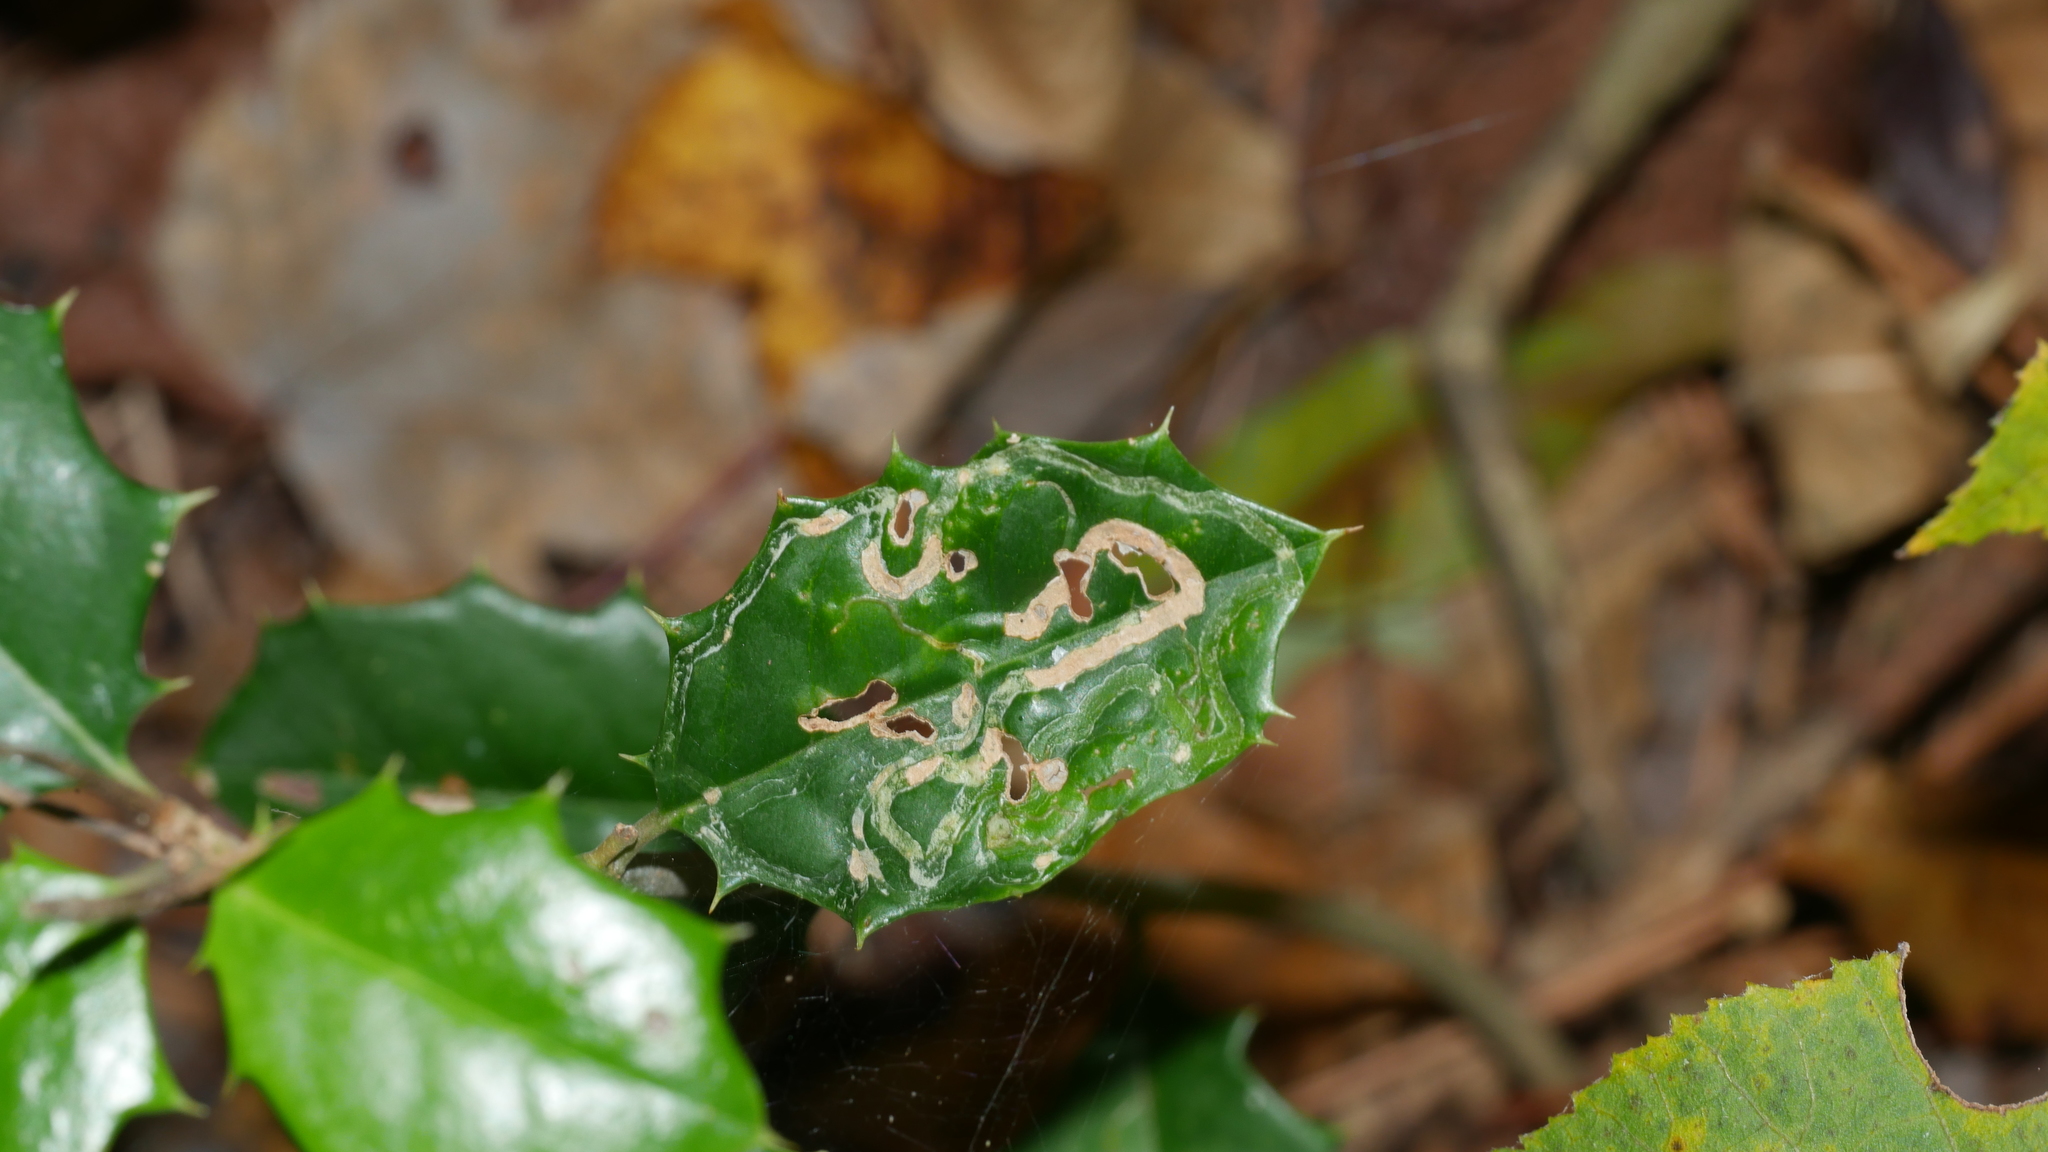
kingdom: Animalia
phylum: Arthropoda
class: Insecta
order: Diptera
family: Agromyzidae
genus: Phytomyza
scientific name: Phytomyza opacae
